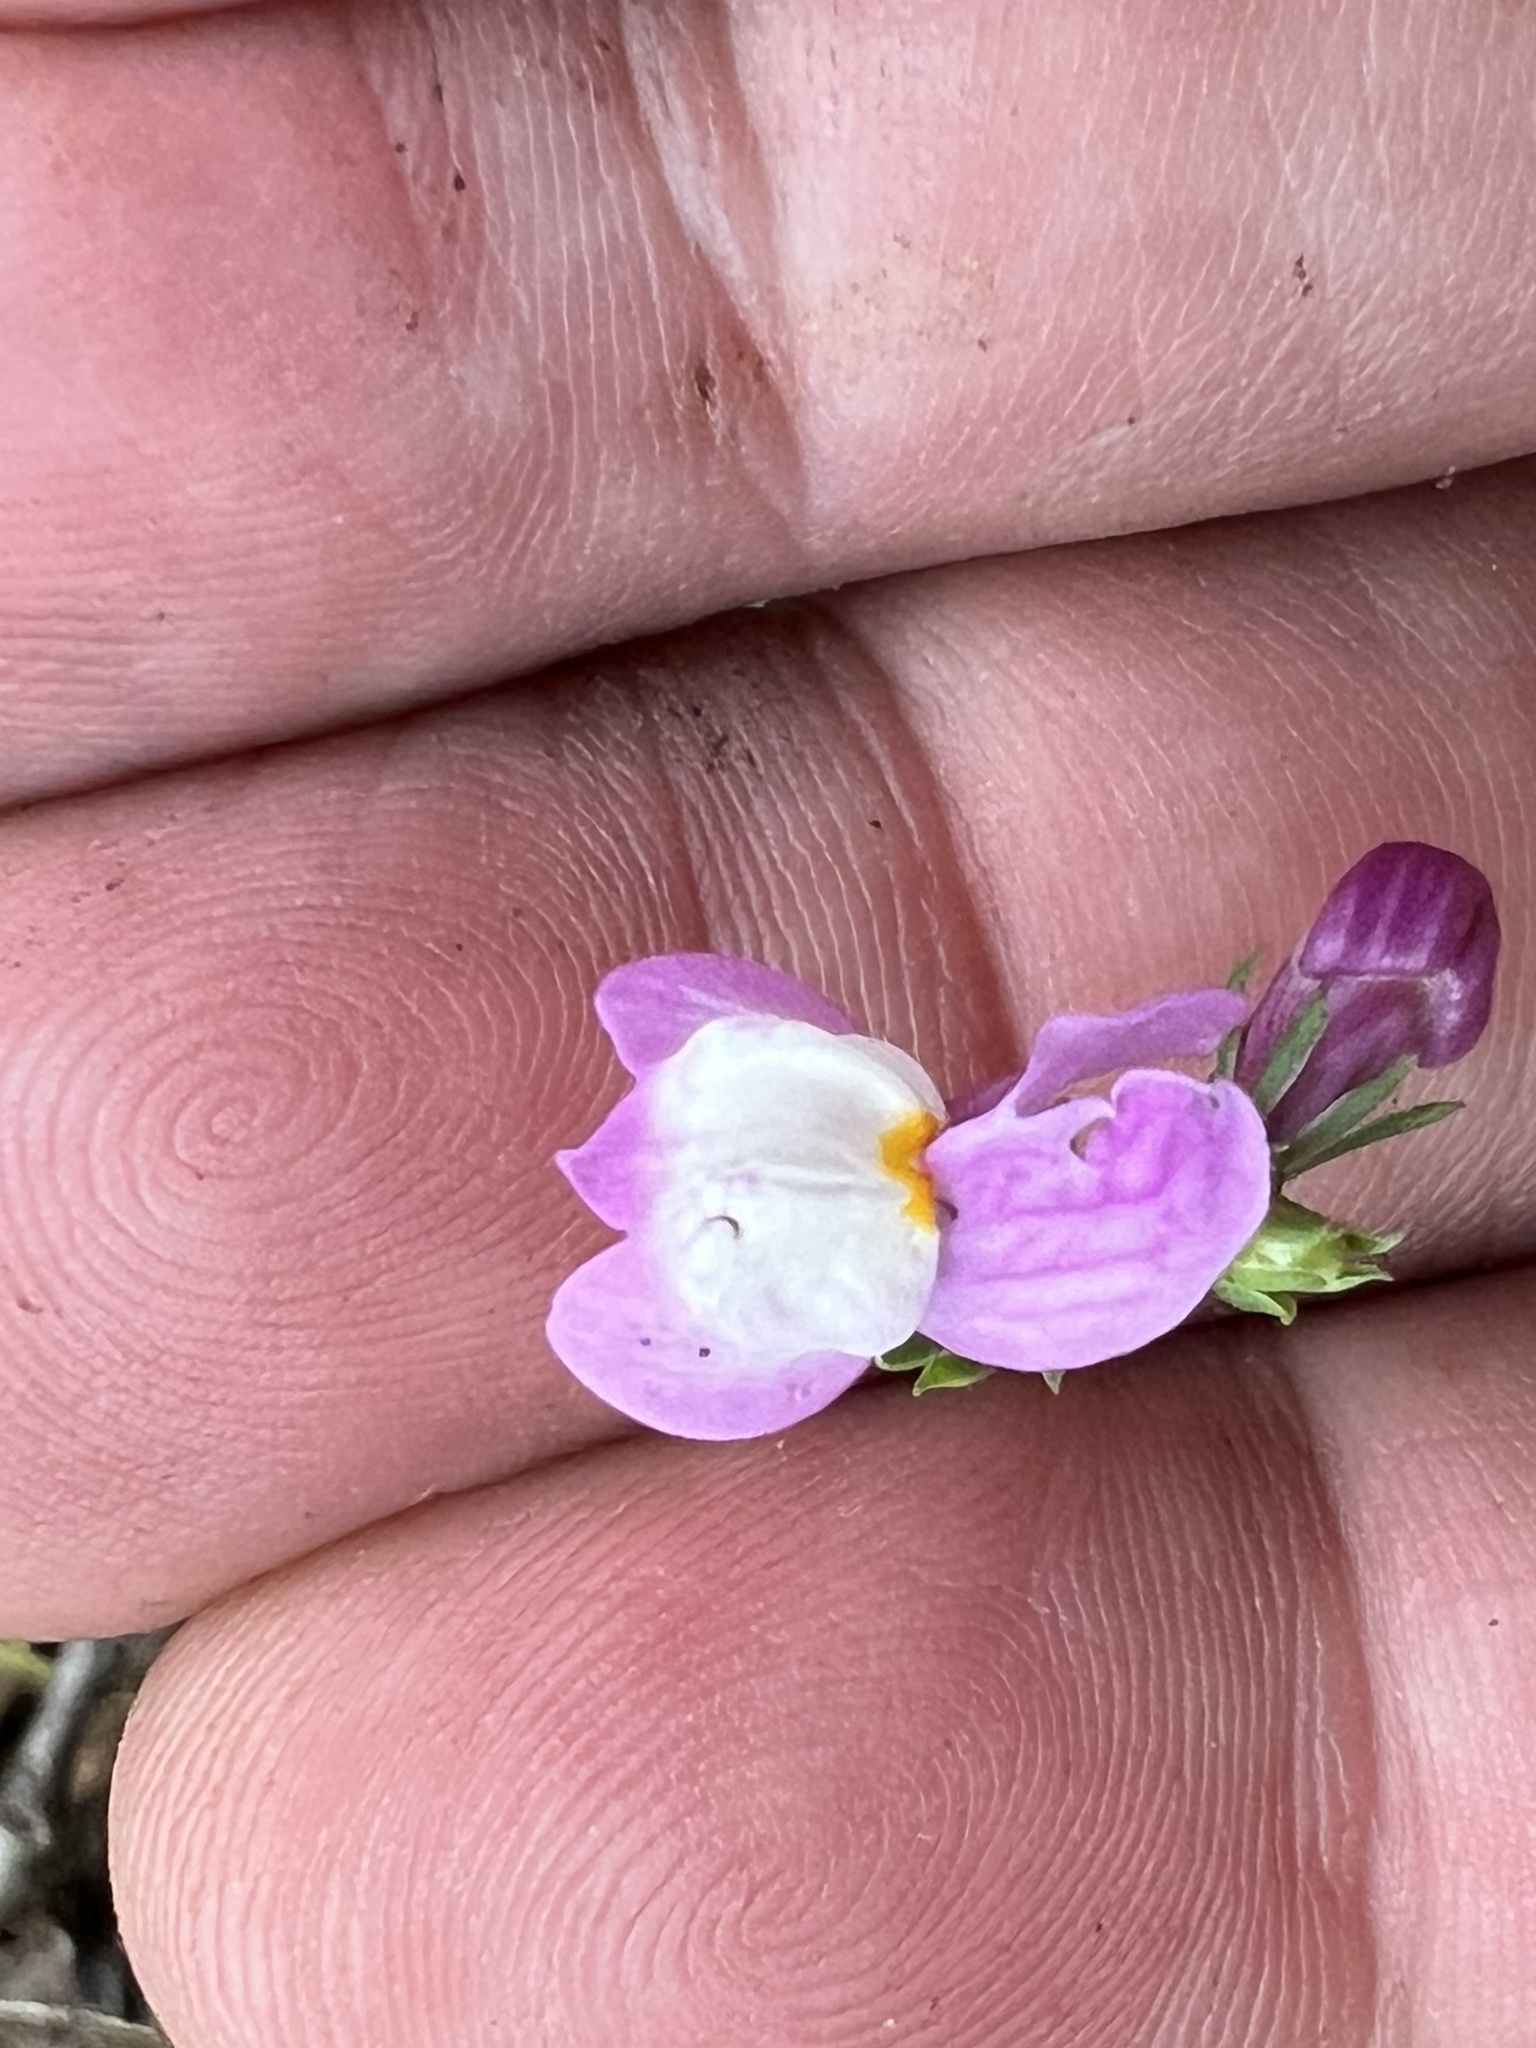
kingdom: Plantae
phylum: Tracheophyta
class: Magnoliopsida
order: Lamiales
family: Plantaginaceae
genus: Linaria
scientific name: Linaria maroccana
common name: Moroccan toadflax
